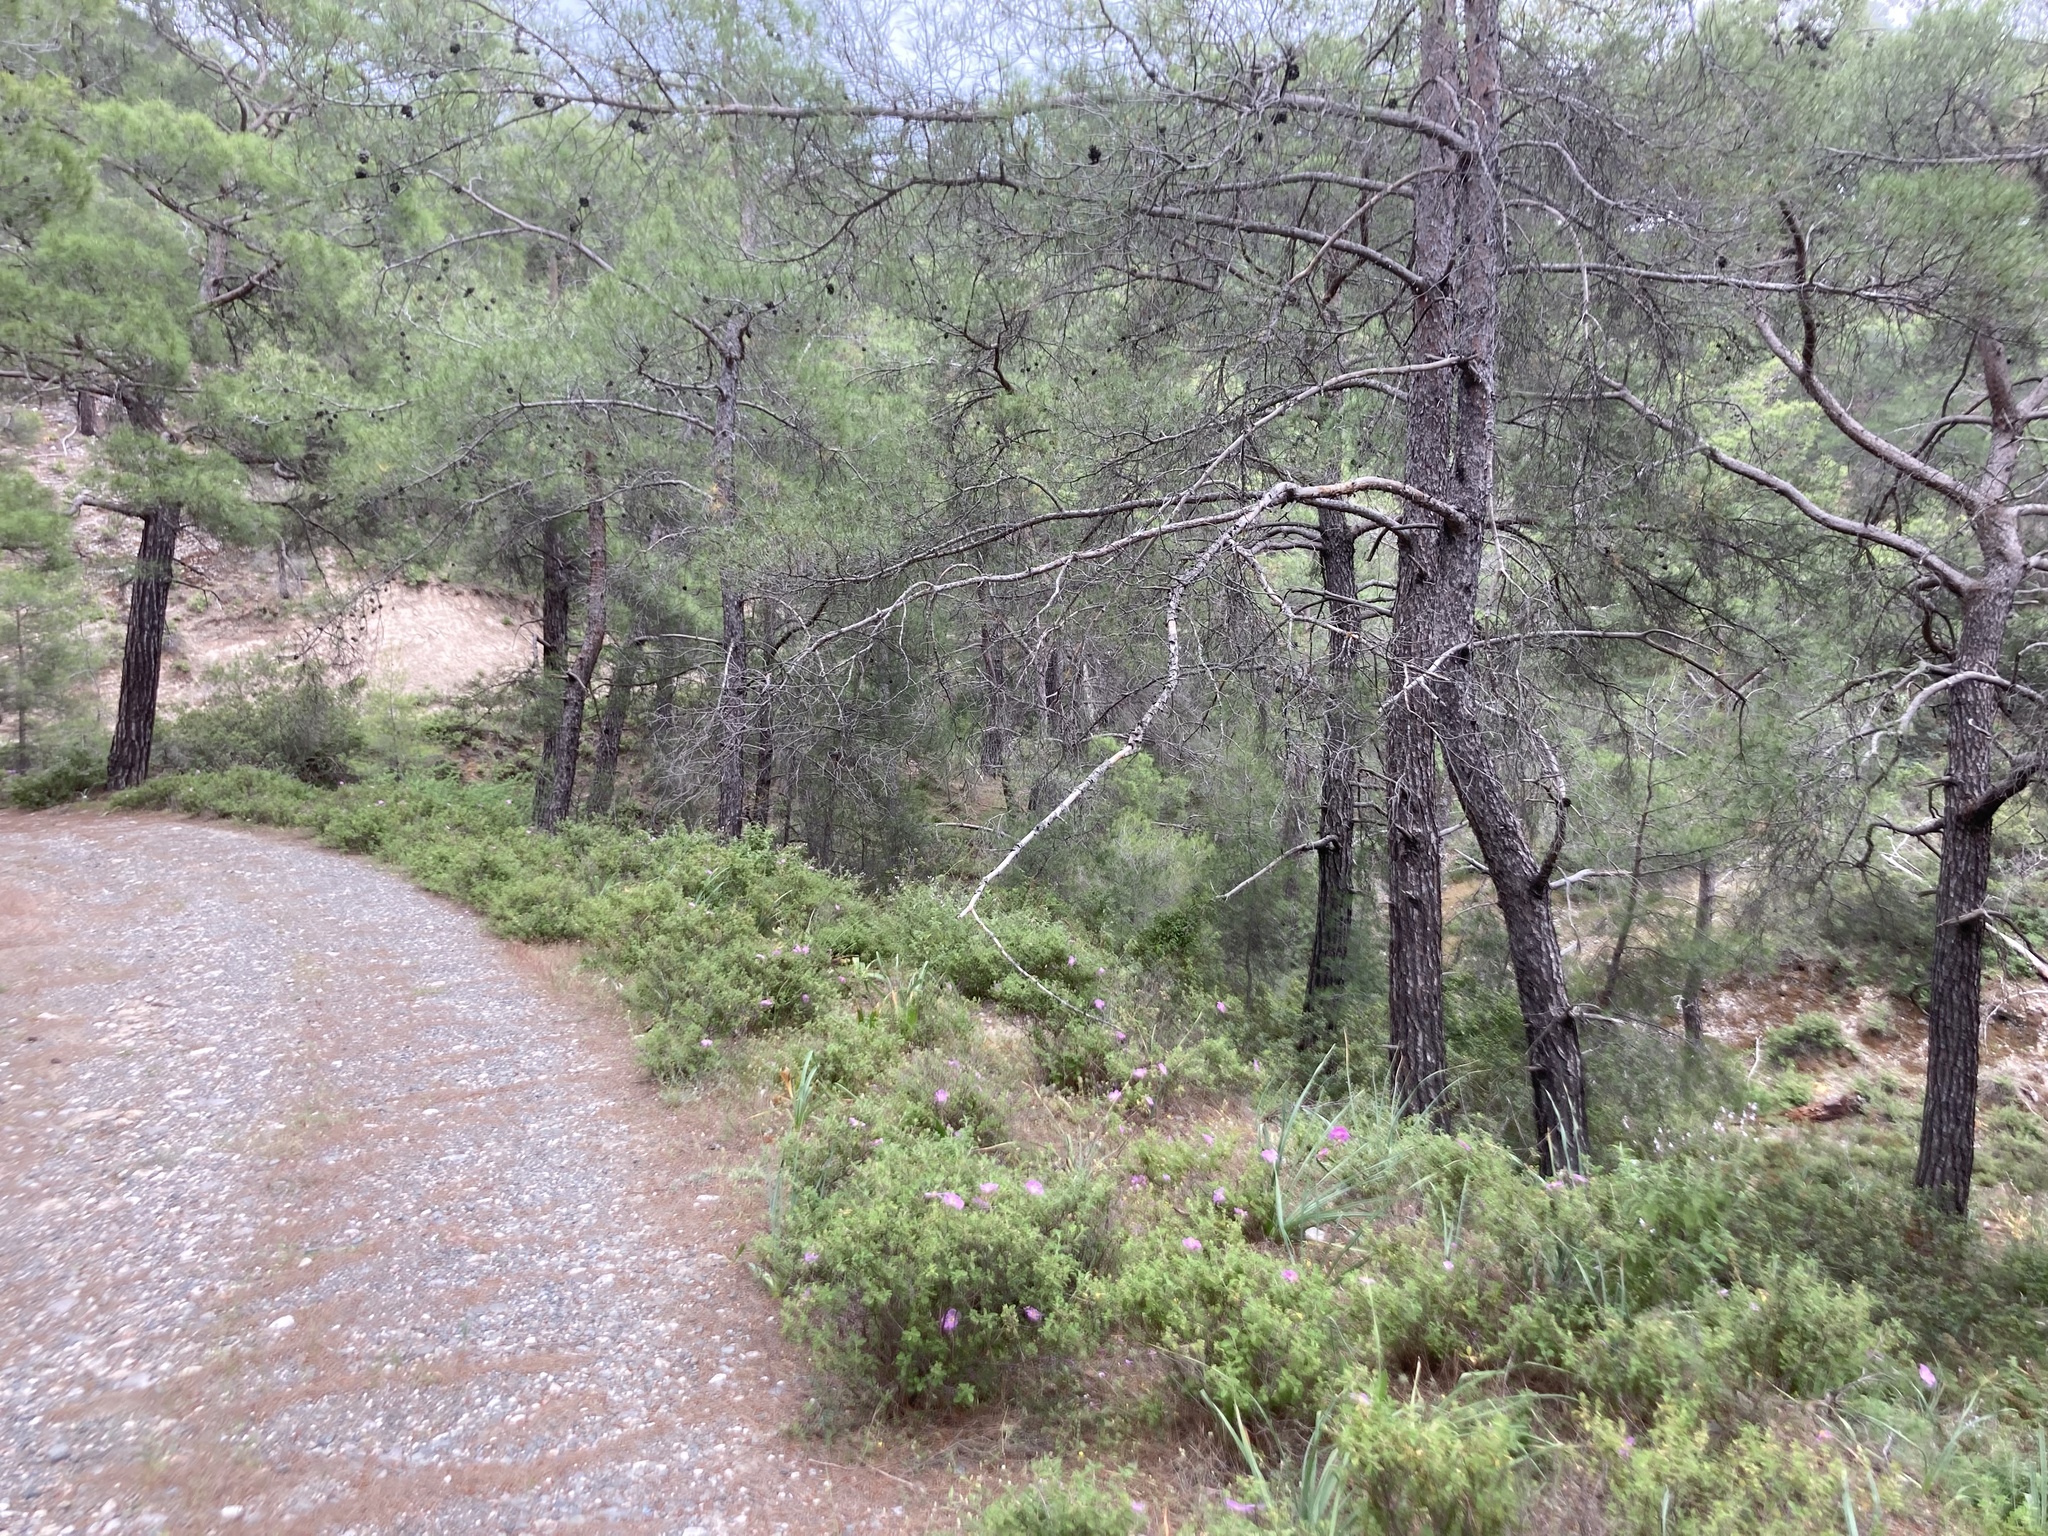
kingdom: Plantae
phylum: Tracheophyta
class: Pinopsida
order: Pinales
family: Pinaceae
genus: Pinus
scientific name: Pinus brutia
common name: Turkish pine
